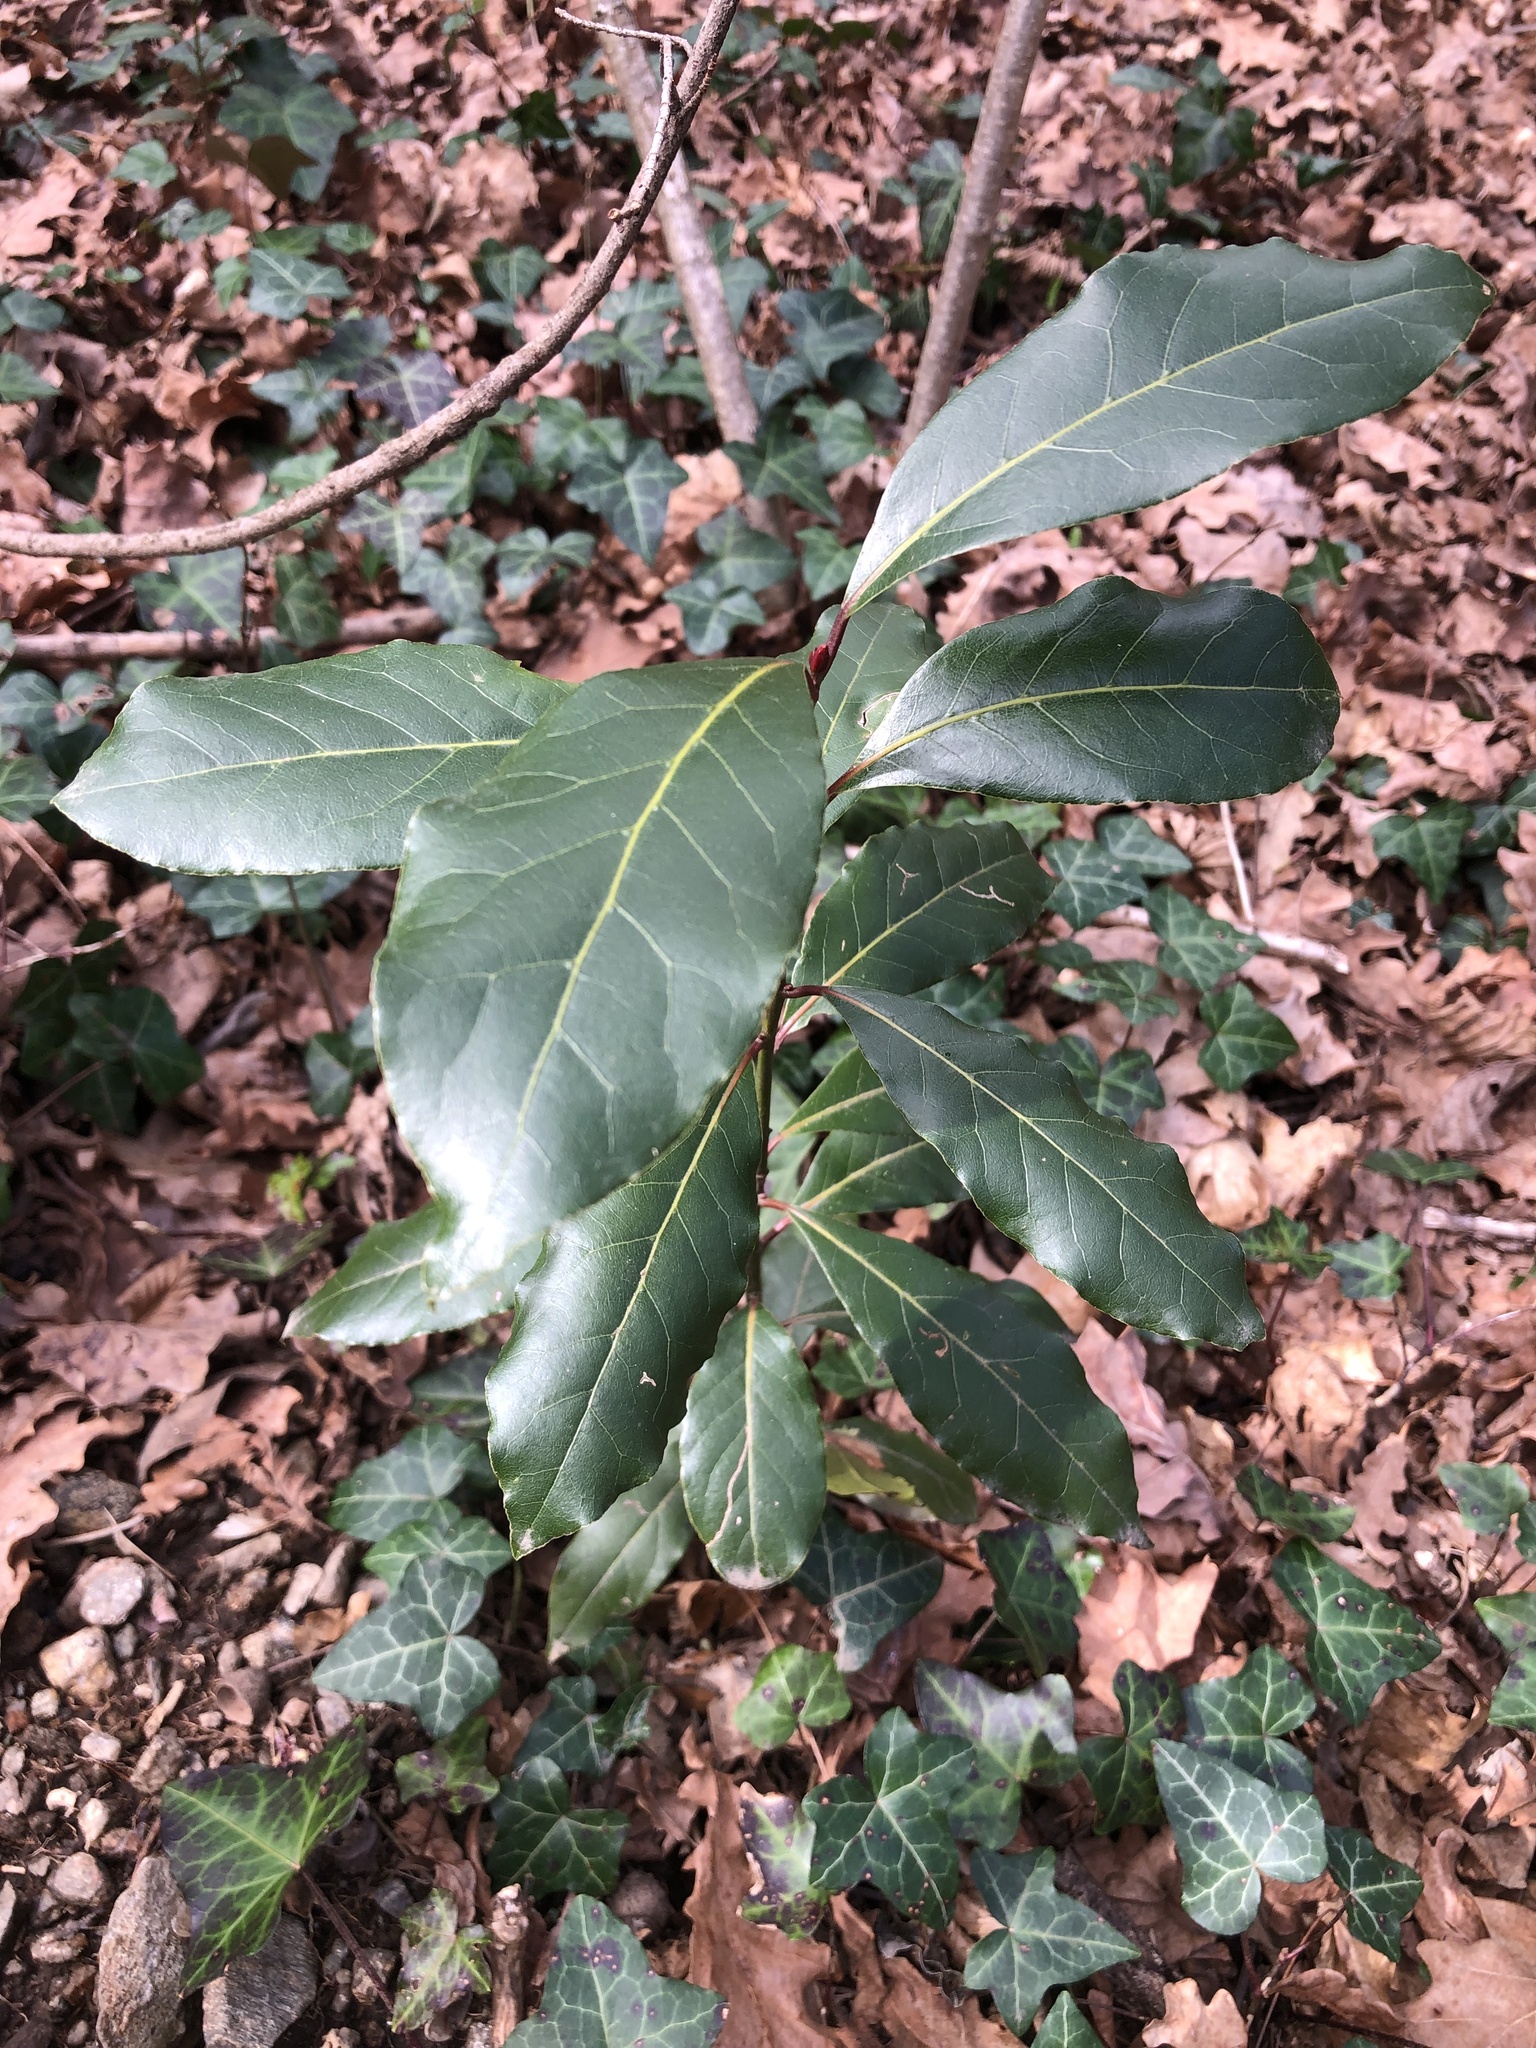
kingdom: Plantae
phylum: Tracheophyta
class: Magnoliopsida
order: Laurales
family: Lauraceae
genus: Laurus
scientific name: Laurus nobilis
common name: Bay
